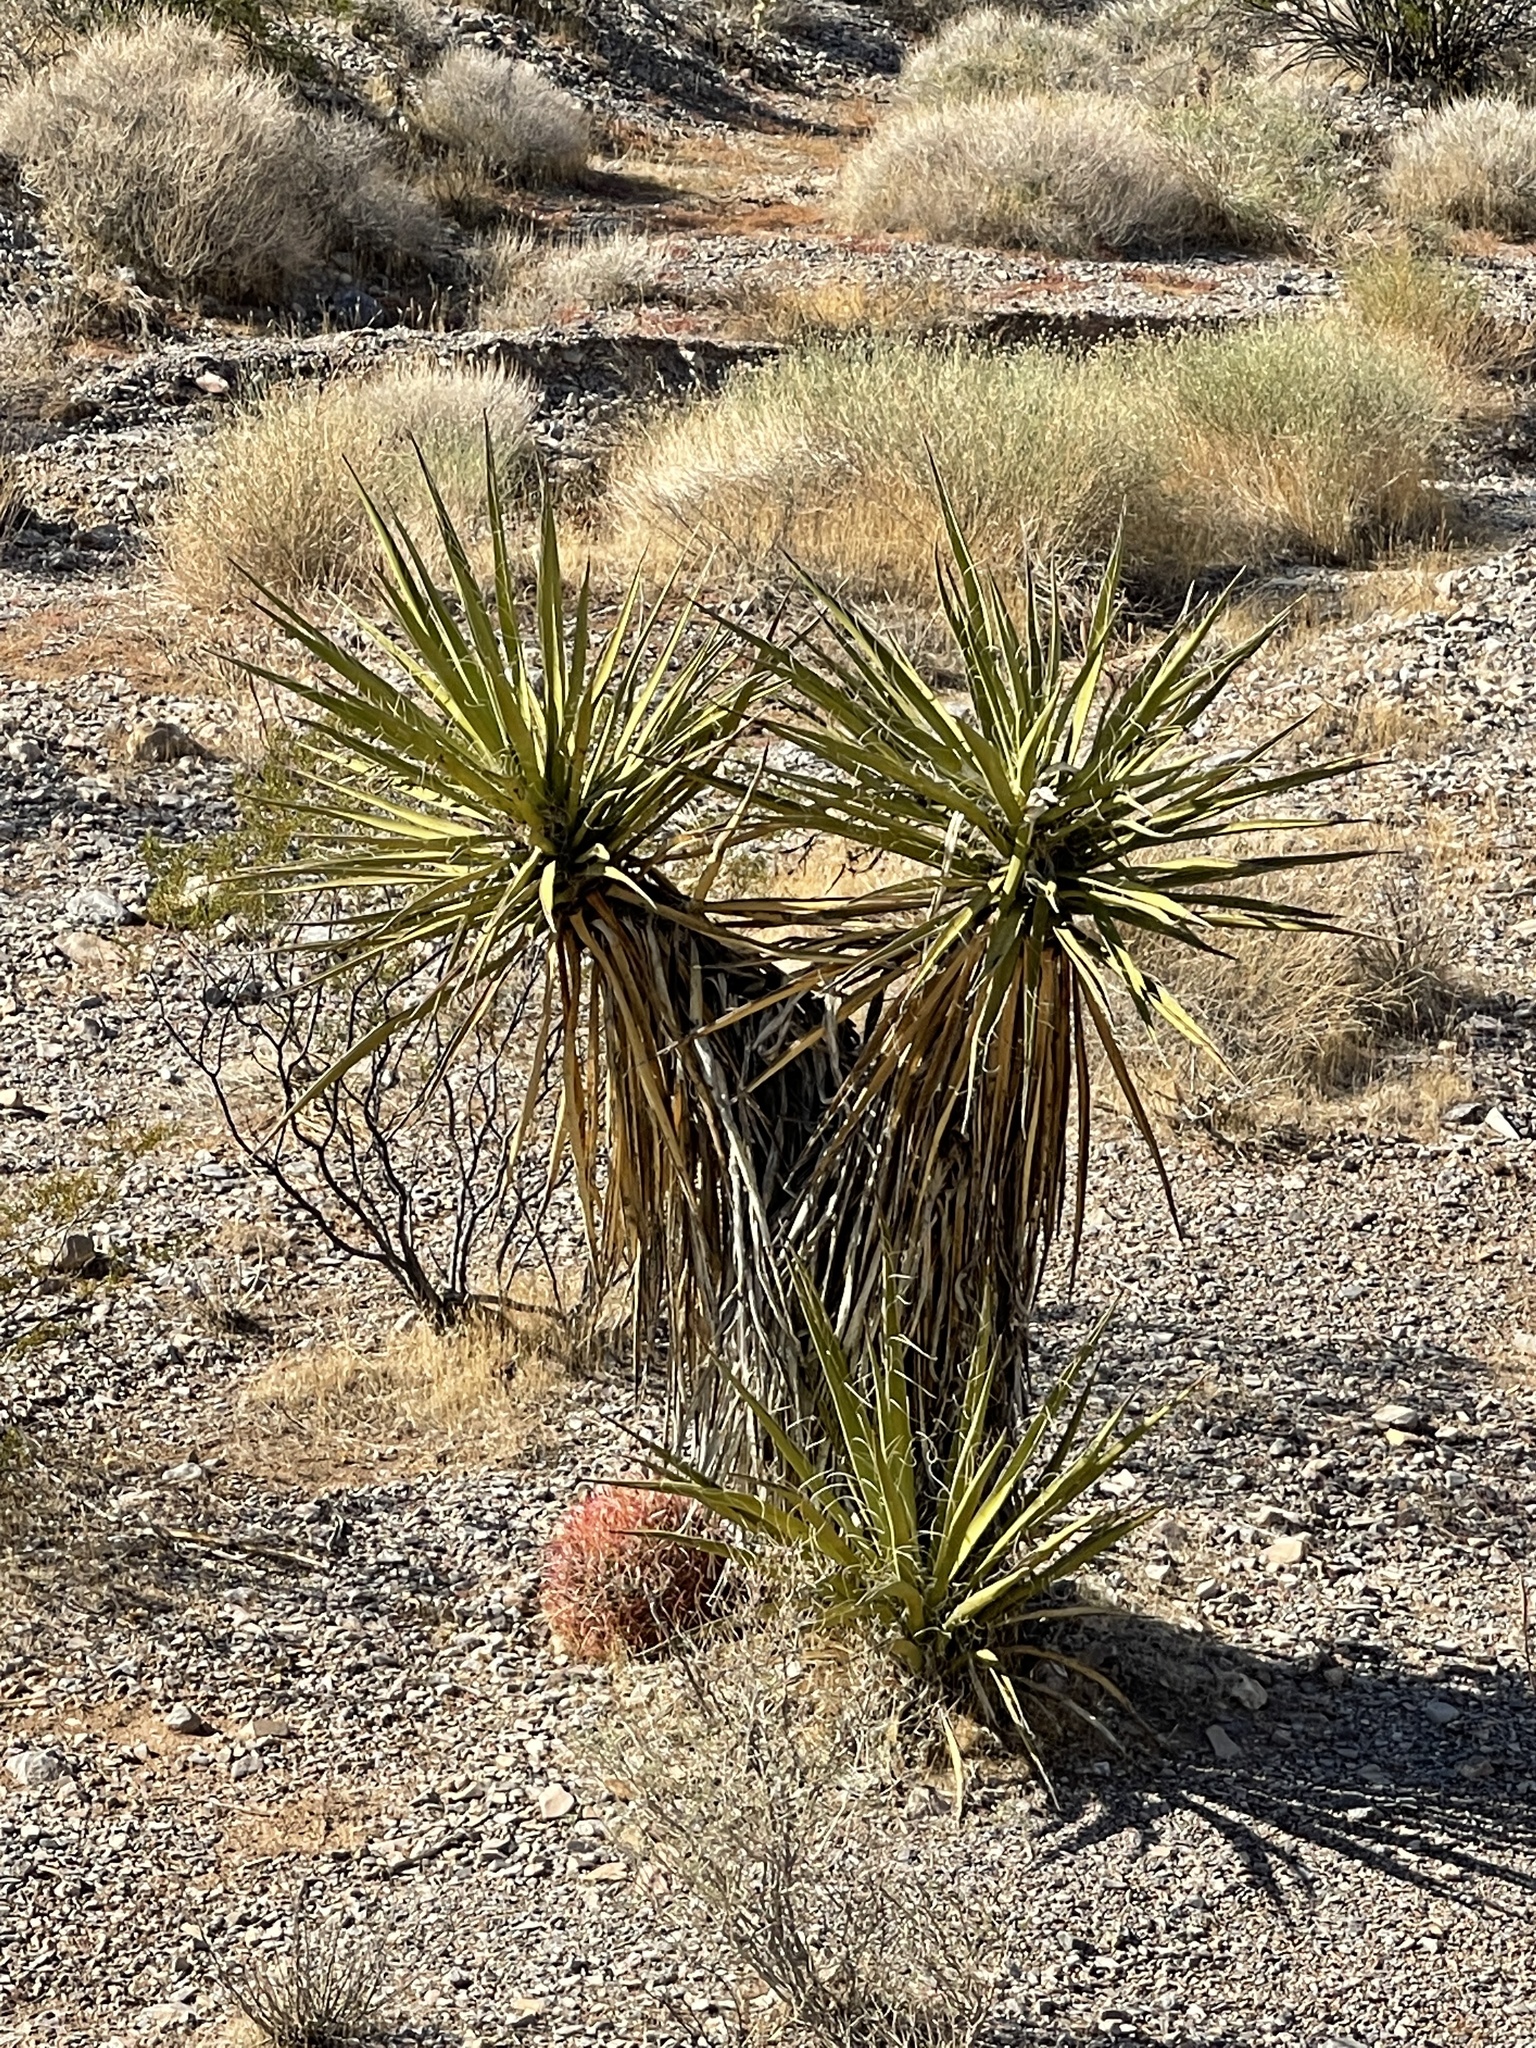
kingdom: Plantae
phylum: Tracheophyta
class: Liliopsida
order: Asparagales
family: Asparagaceae
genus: Yucca
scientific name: Yucca schidigera
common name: Mojave yucca
